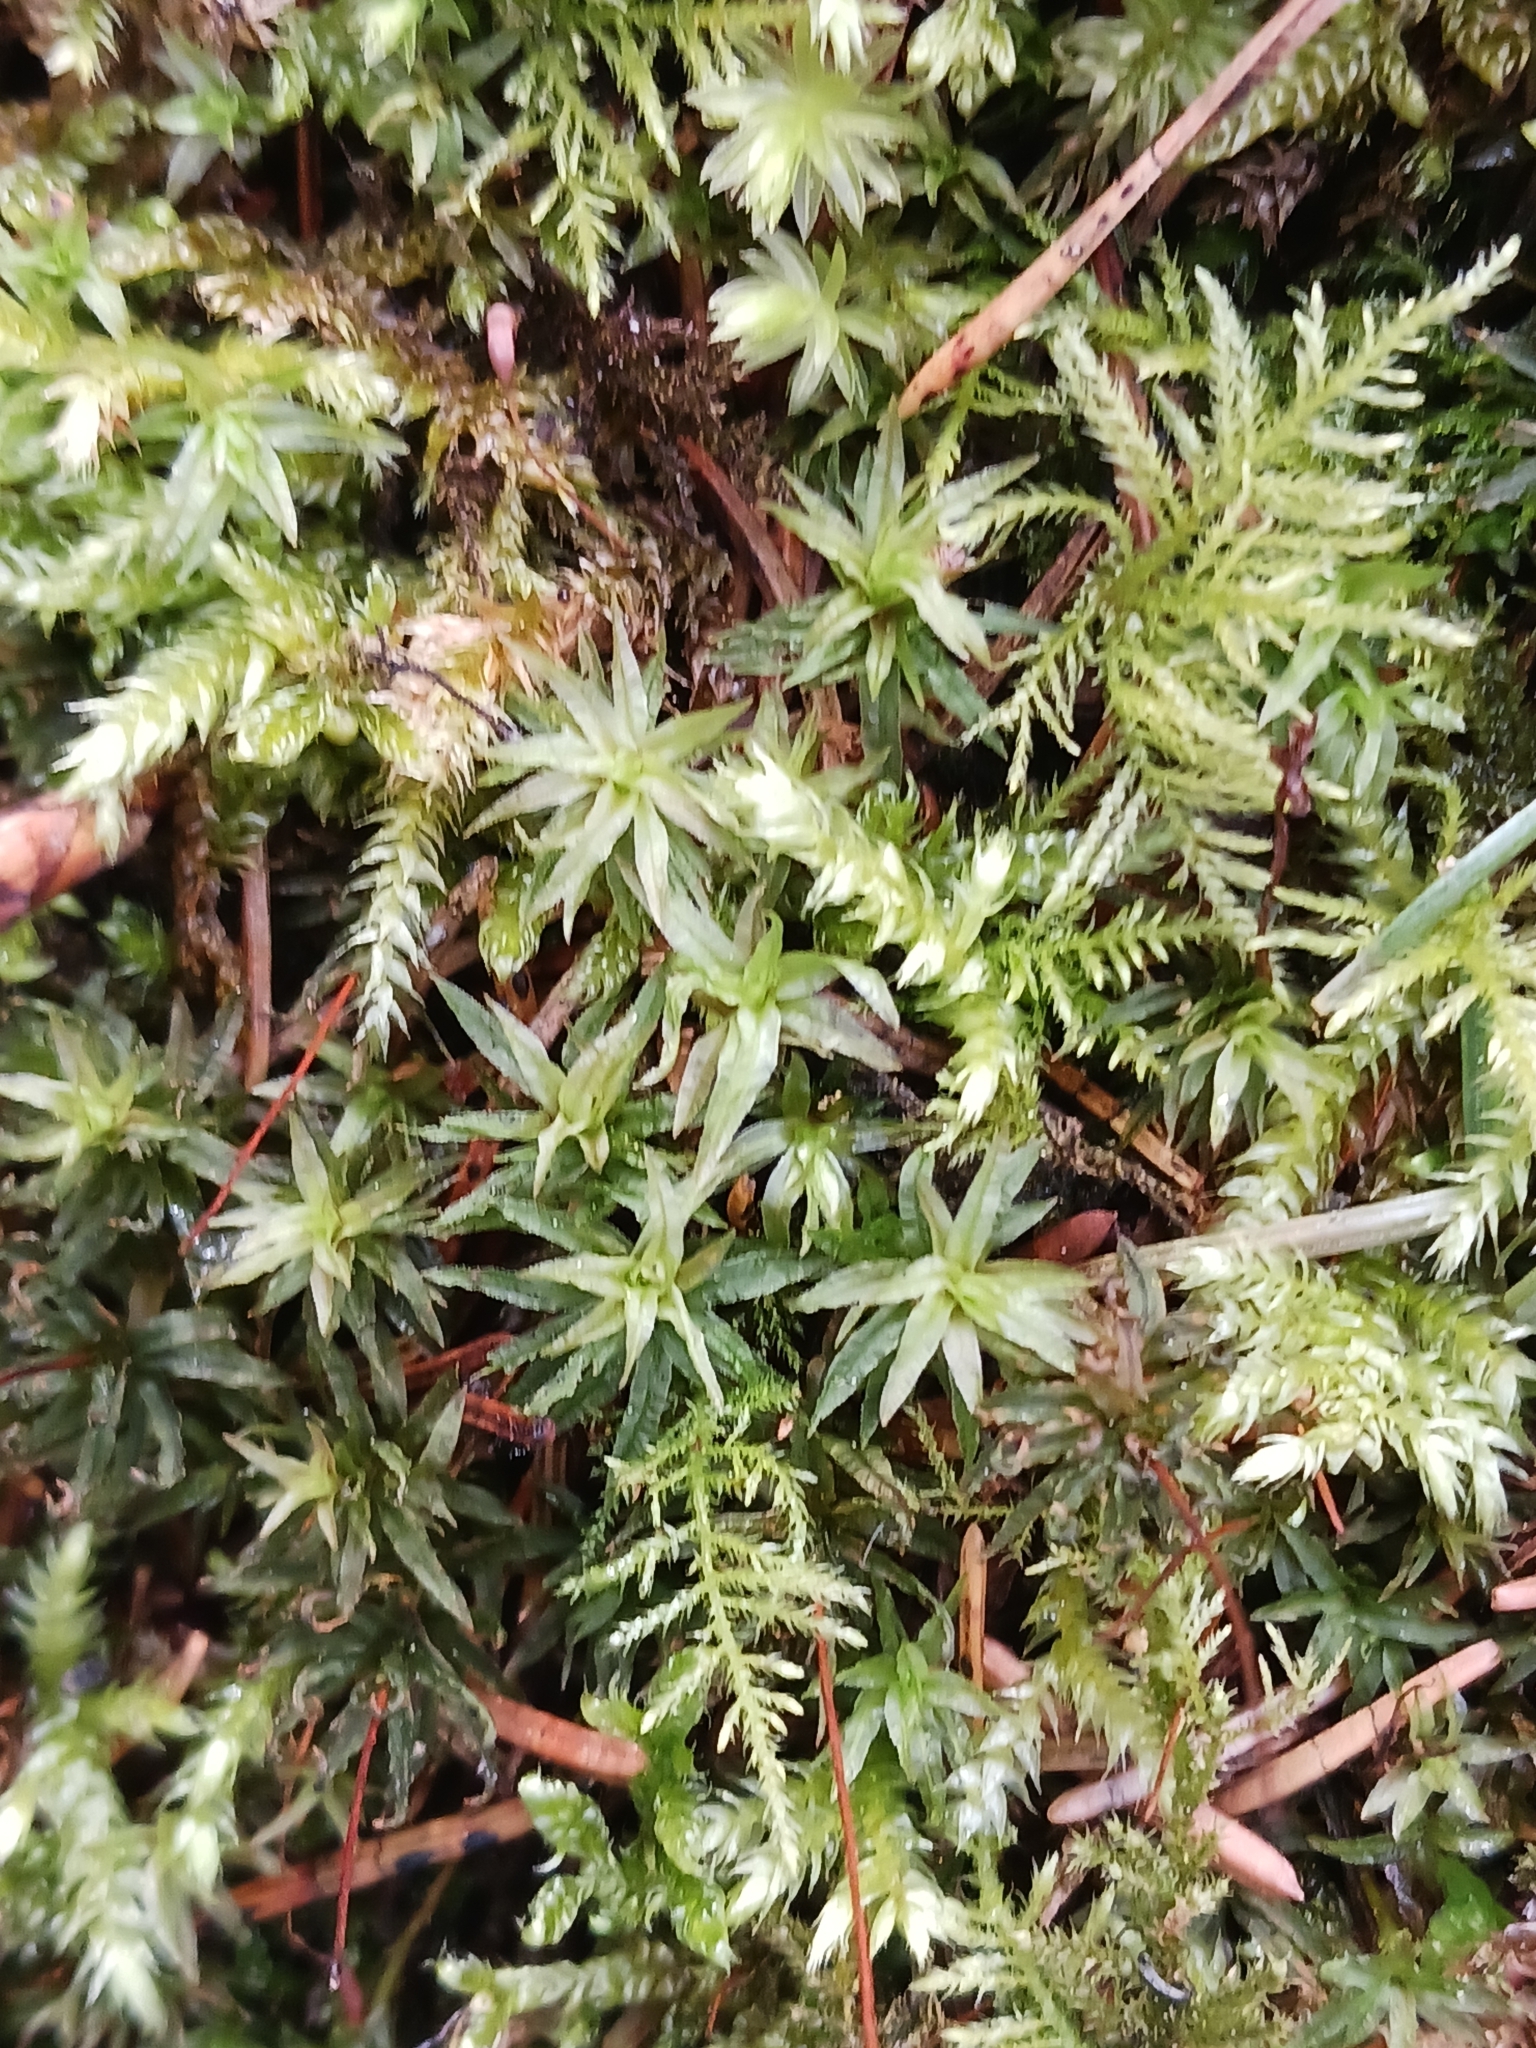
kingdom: Plantae
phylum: Bryophyta
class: Polytrichopsida
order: Polytrichales
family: Polytrichaceae
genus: Atrichum
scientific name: Atrichum undulatum
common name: Common smoothcap
